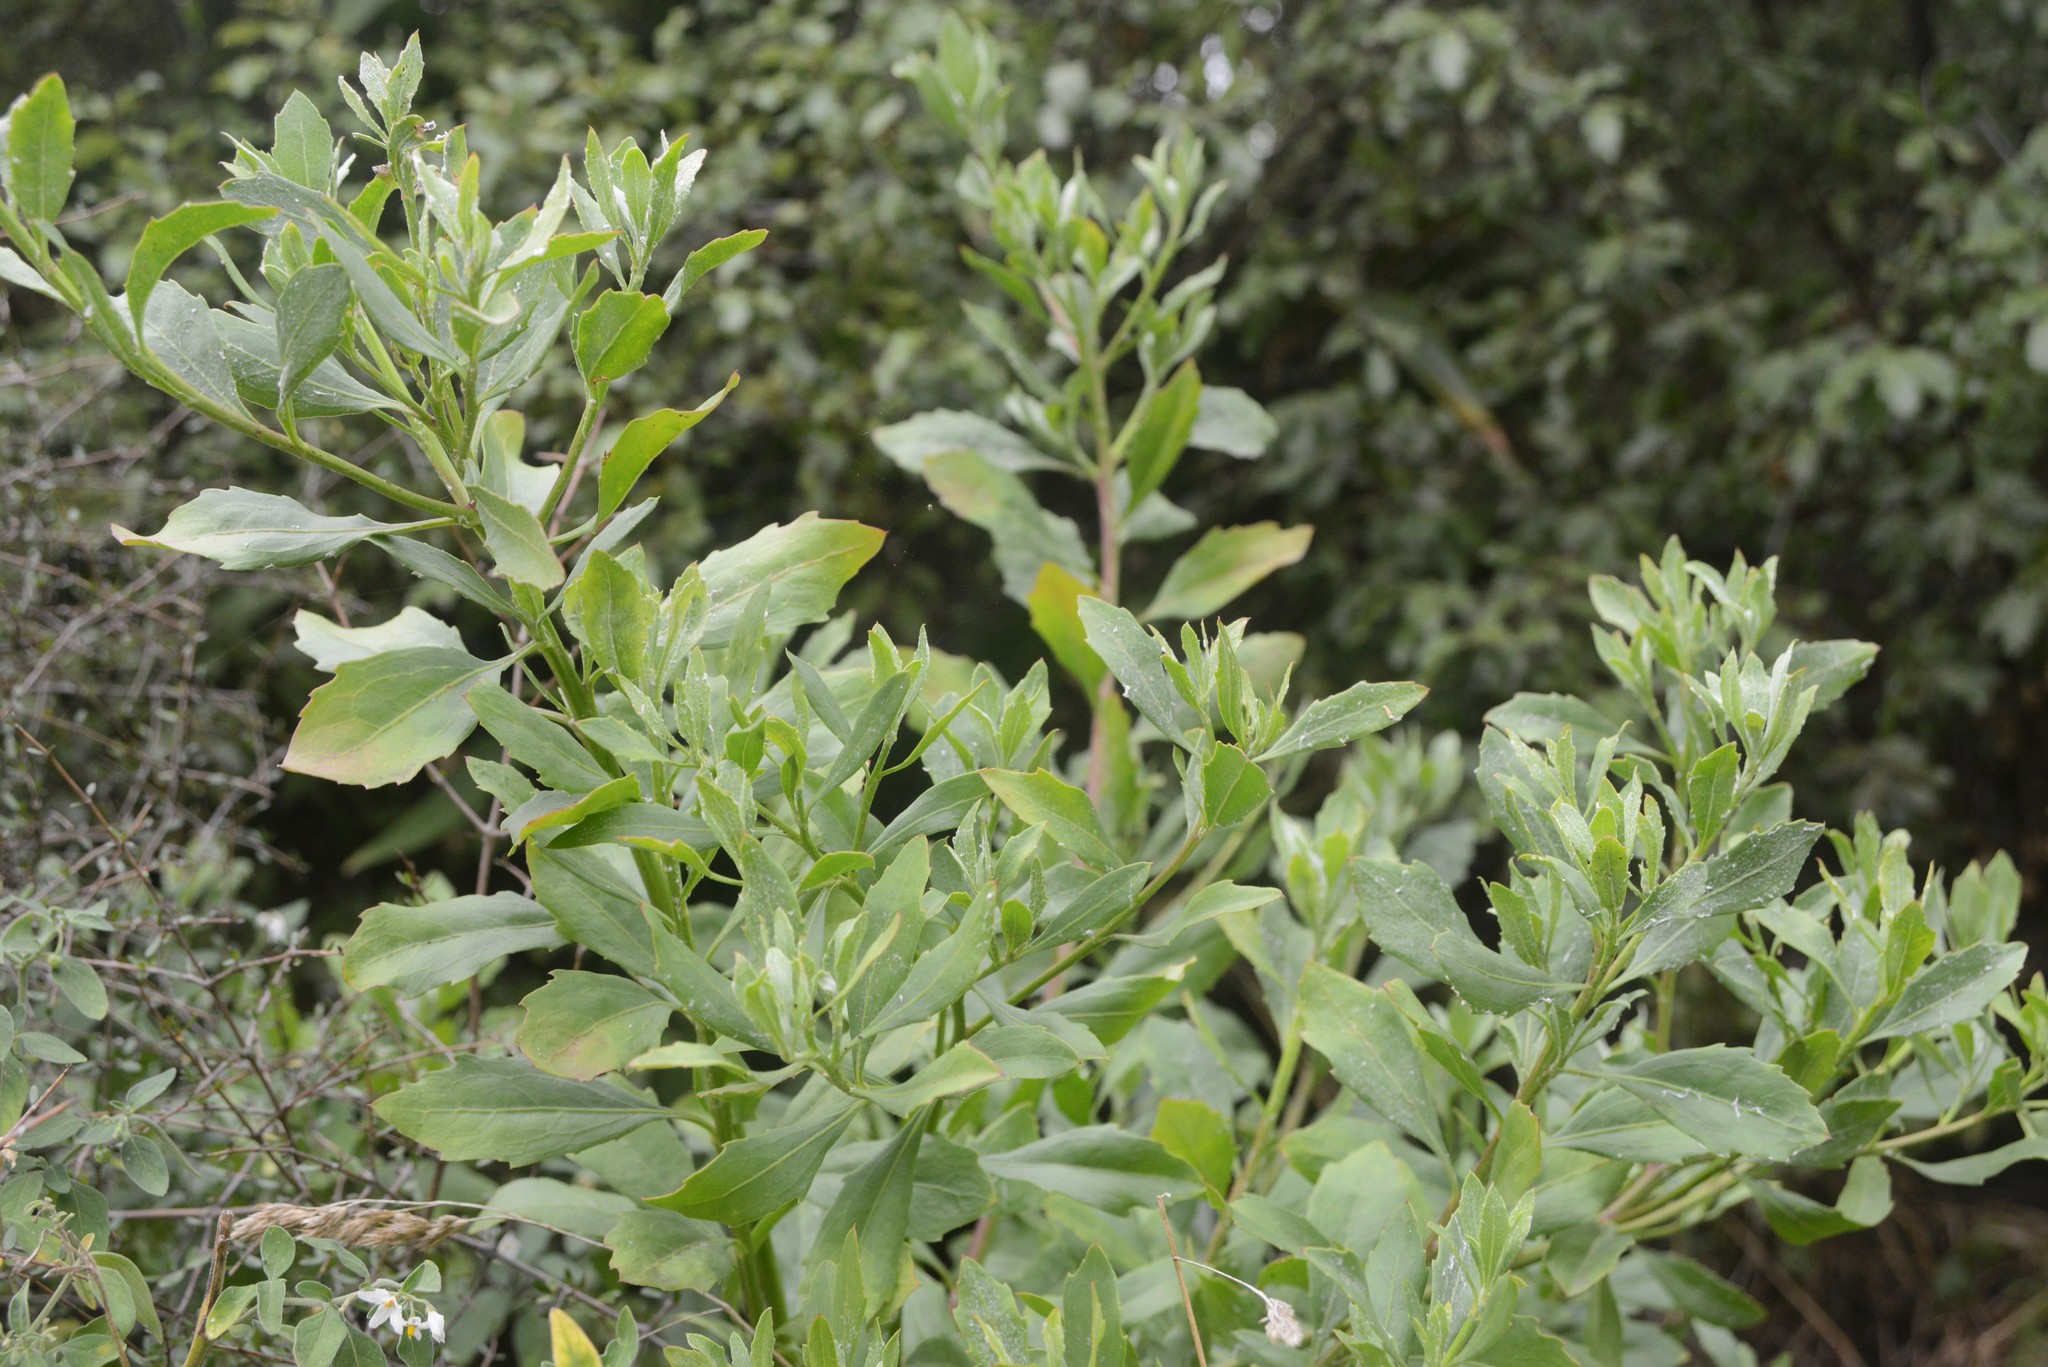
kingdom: Plantae
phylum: Tracheophyta
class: Magnoliopsida
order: Asterales
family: Asteraceae
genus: Osteospermum
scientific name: Osteospermum moniliferum
